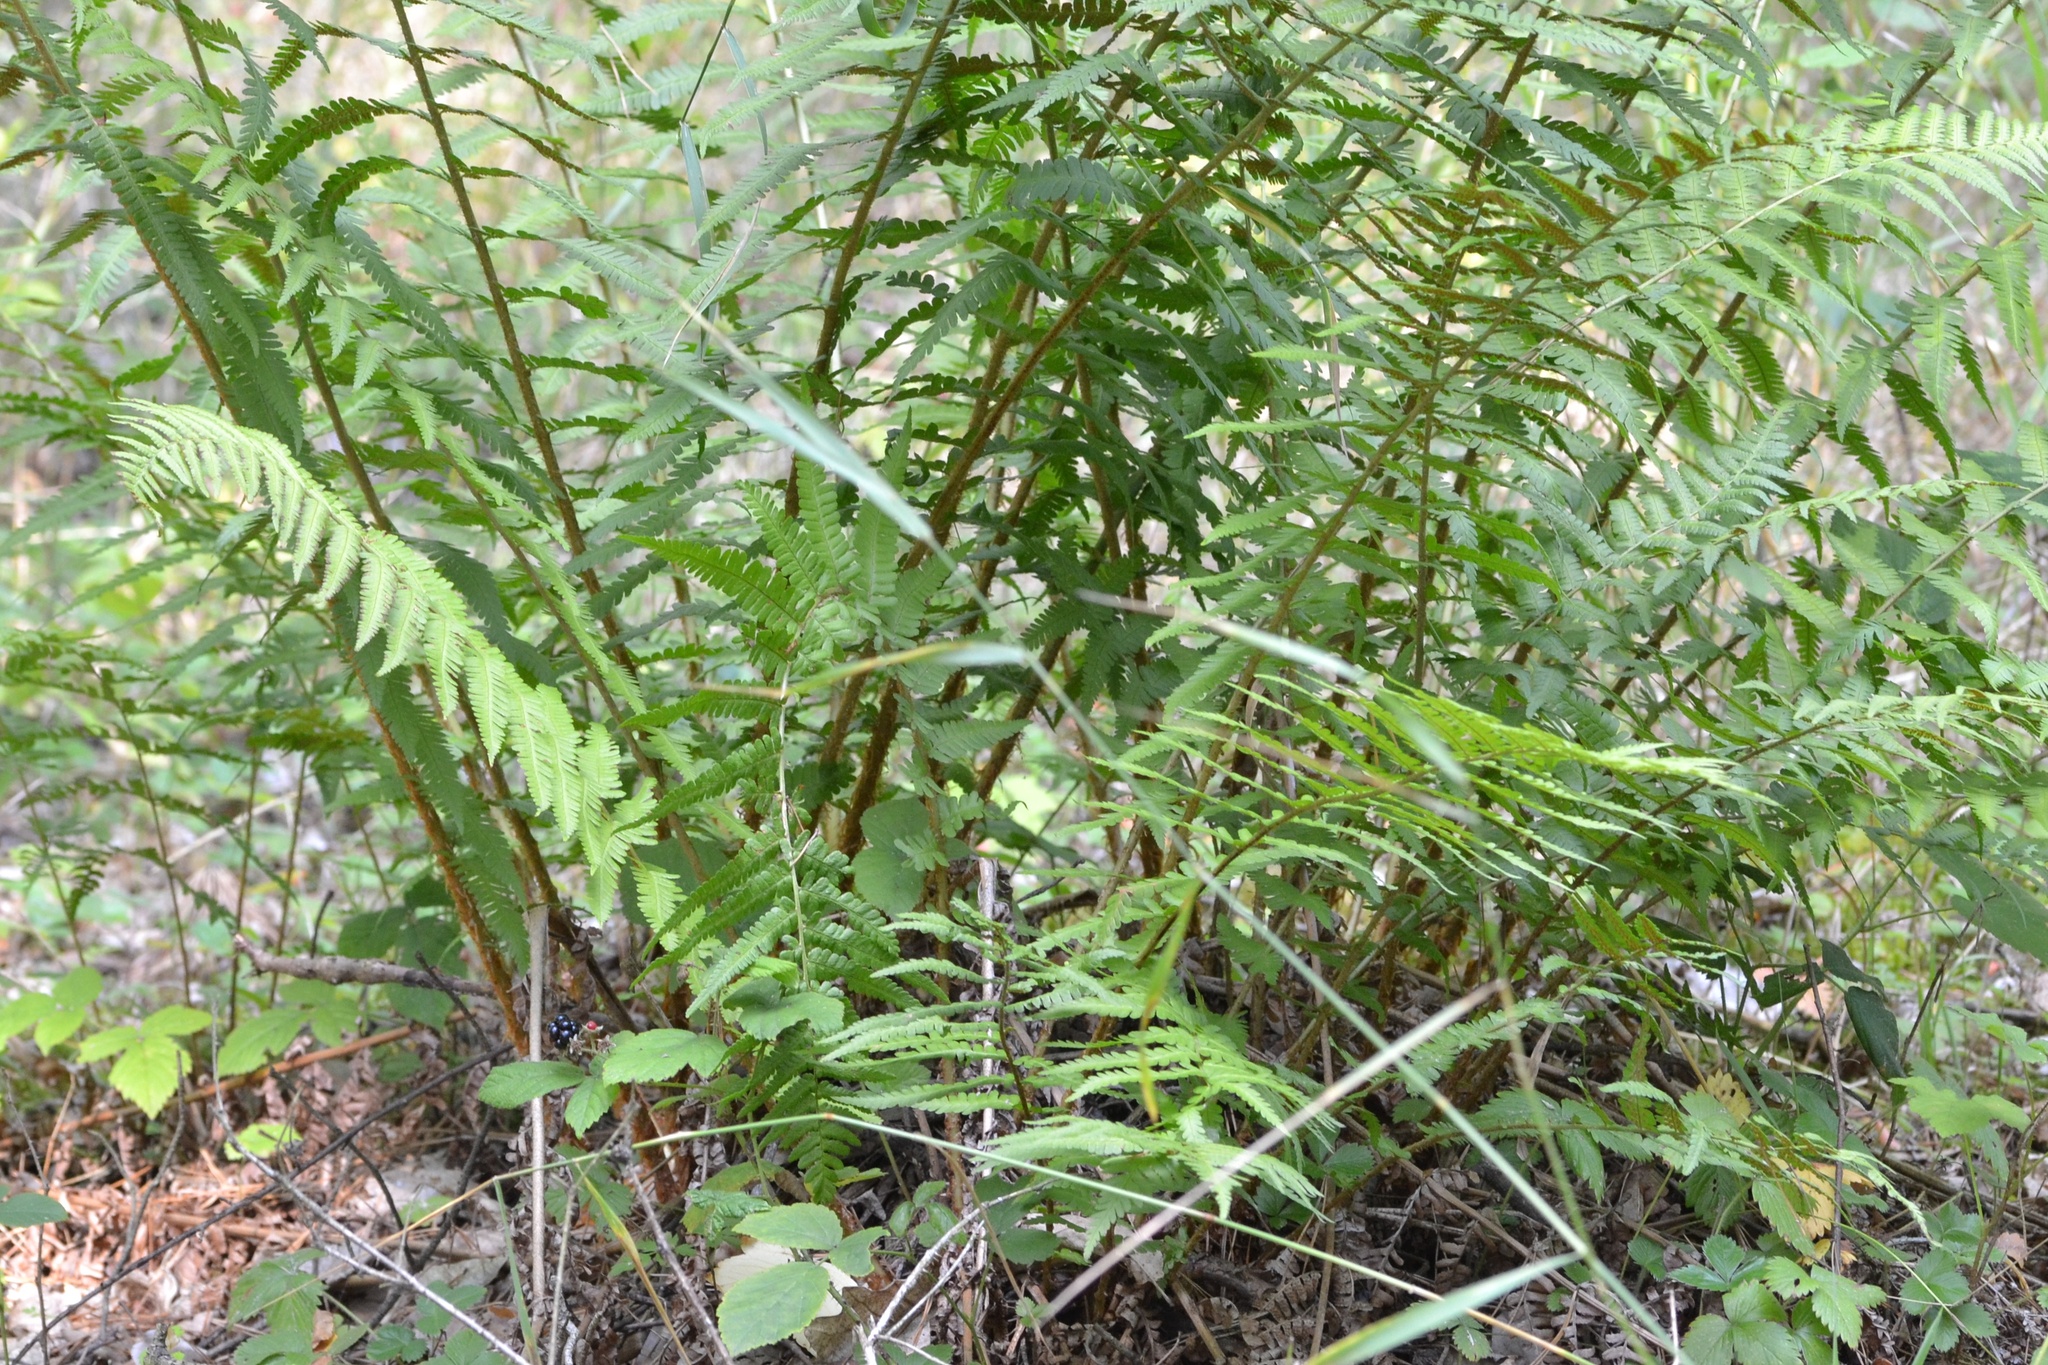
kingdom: Plantae
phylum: Tracheophyta
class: Polypodiopsida
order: Polypodiales
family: Dryopteridaceae
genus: Dryopteris
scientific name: Dryopteris filix-mas
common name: Male fern
